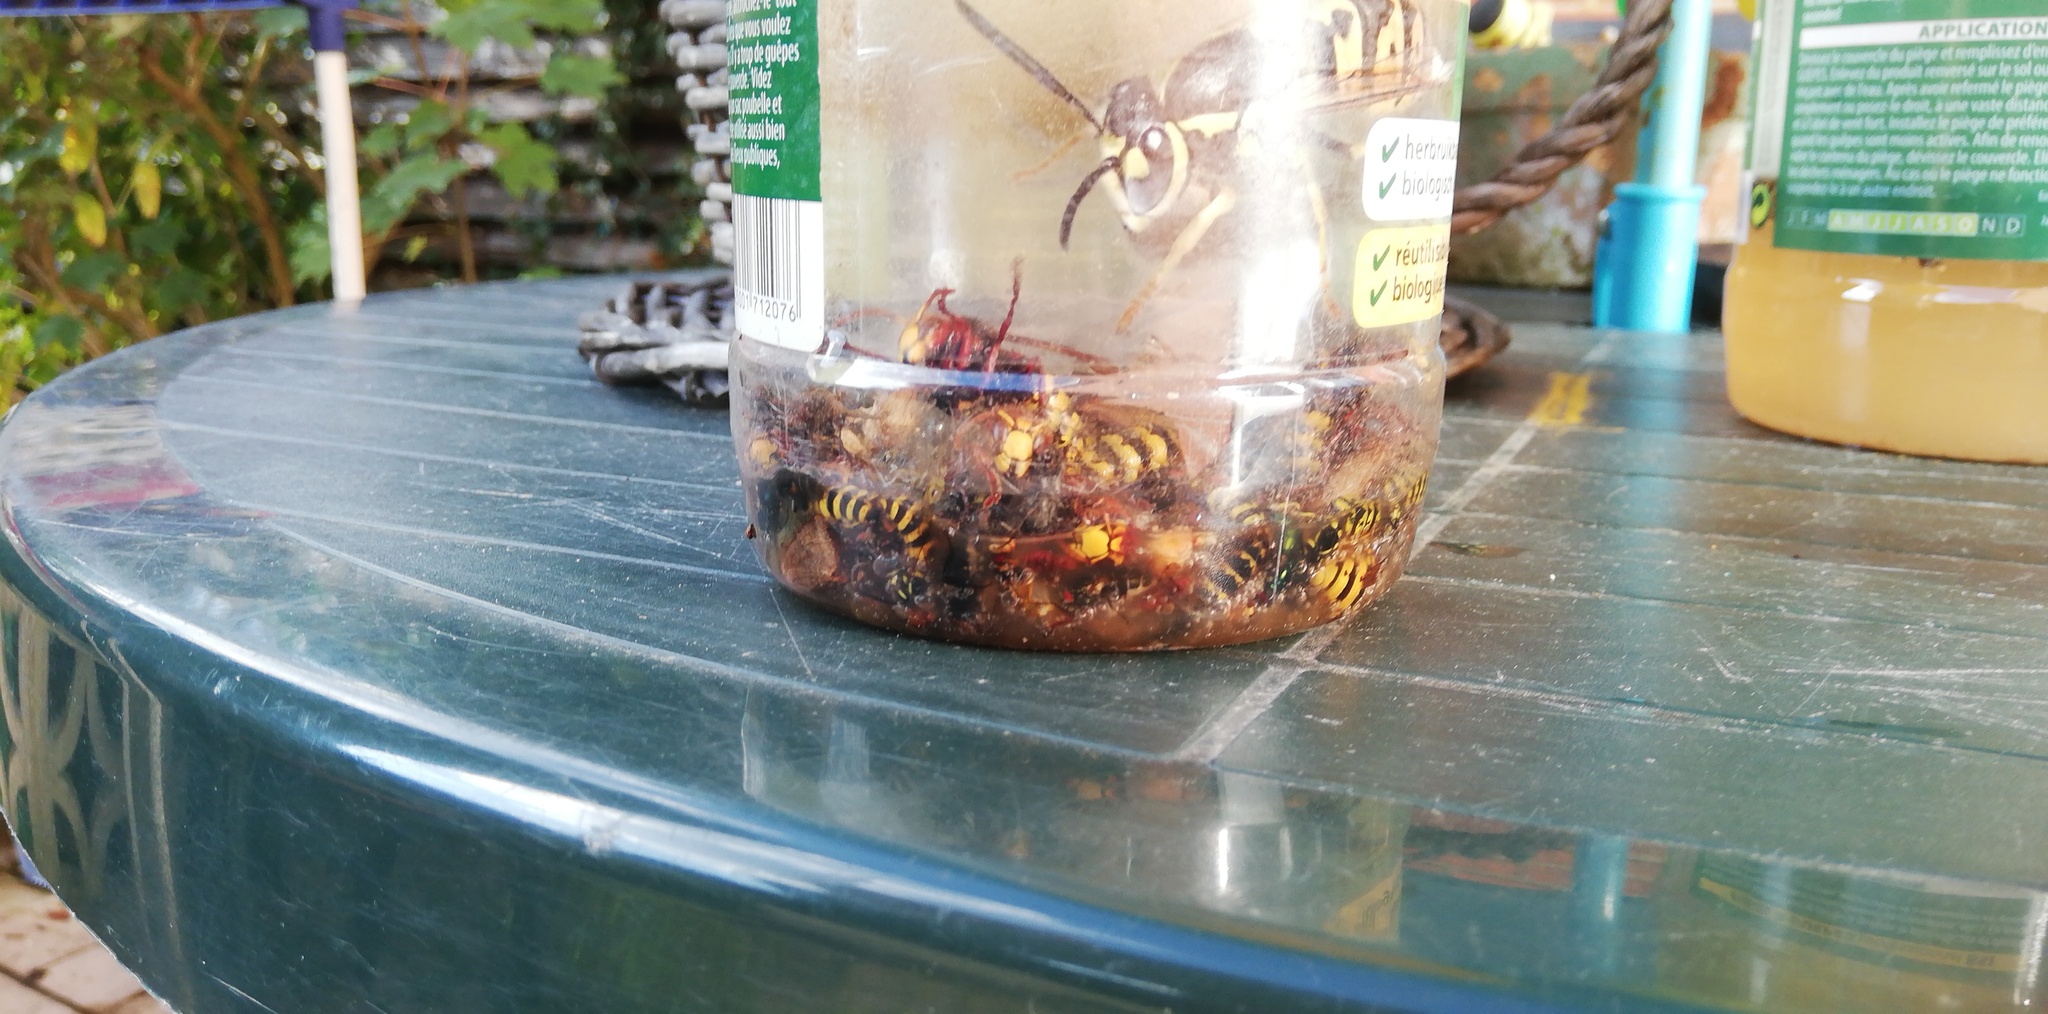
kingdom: Animalia
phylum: Arthropoda
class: Insecta
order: Hymenoptera
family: Vespidae
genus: Vespa
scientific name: Vespa crabro
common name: Hornet
